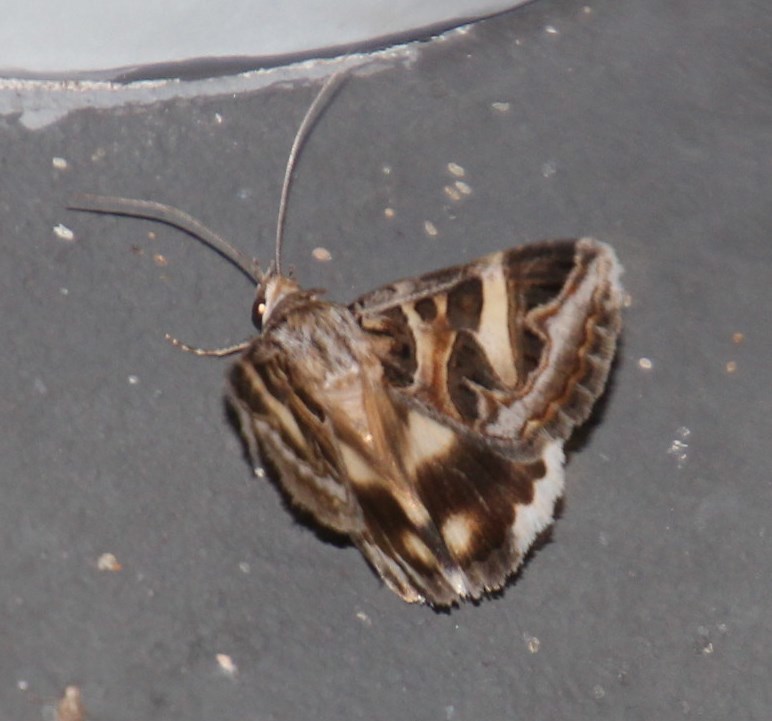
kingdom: Animalia
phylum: Arthropoda
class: Insecta
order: Lepidoptera
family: Erebidae
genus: Cerocala
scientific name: Cerocala vermiculosa
